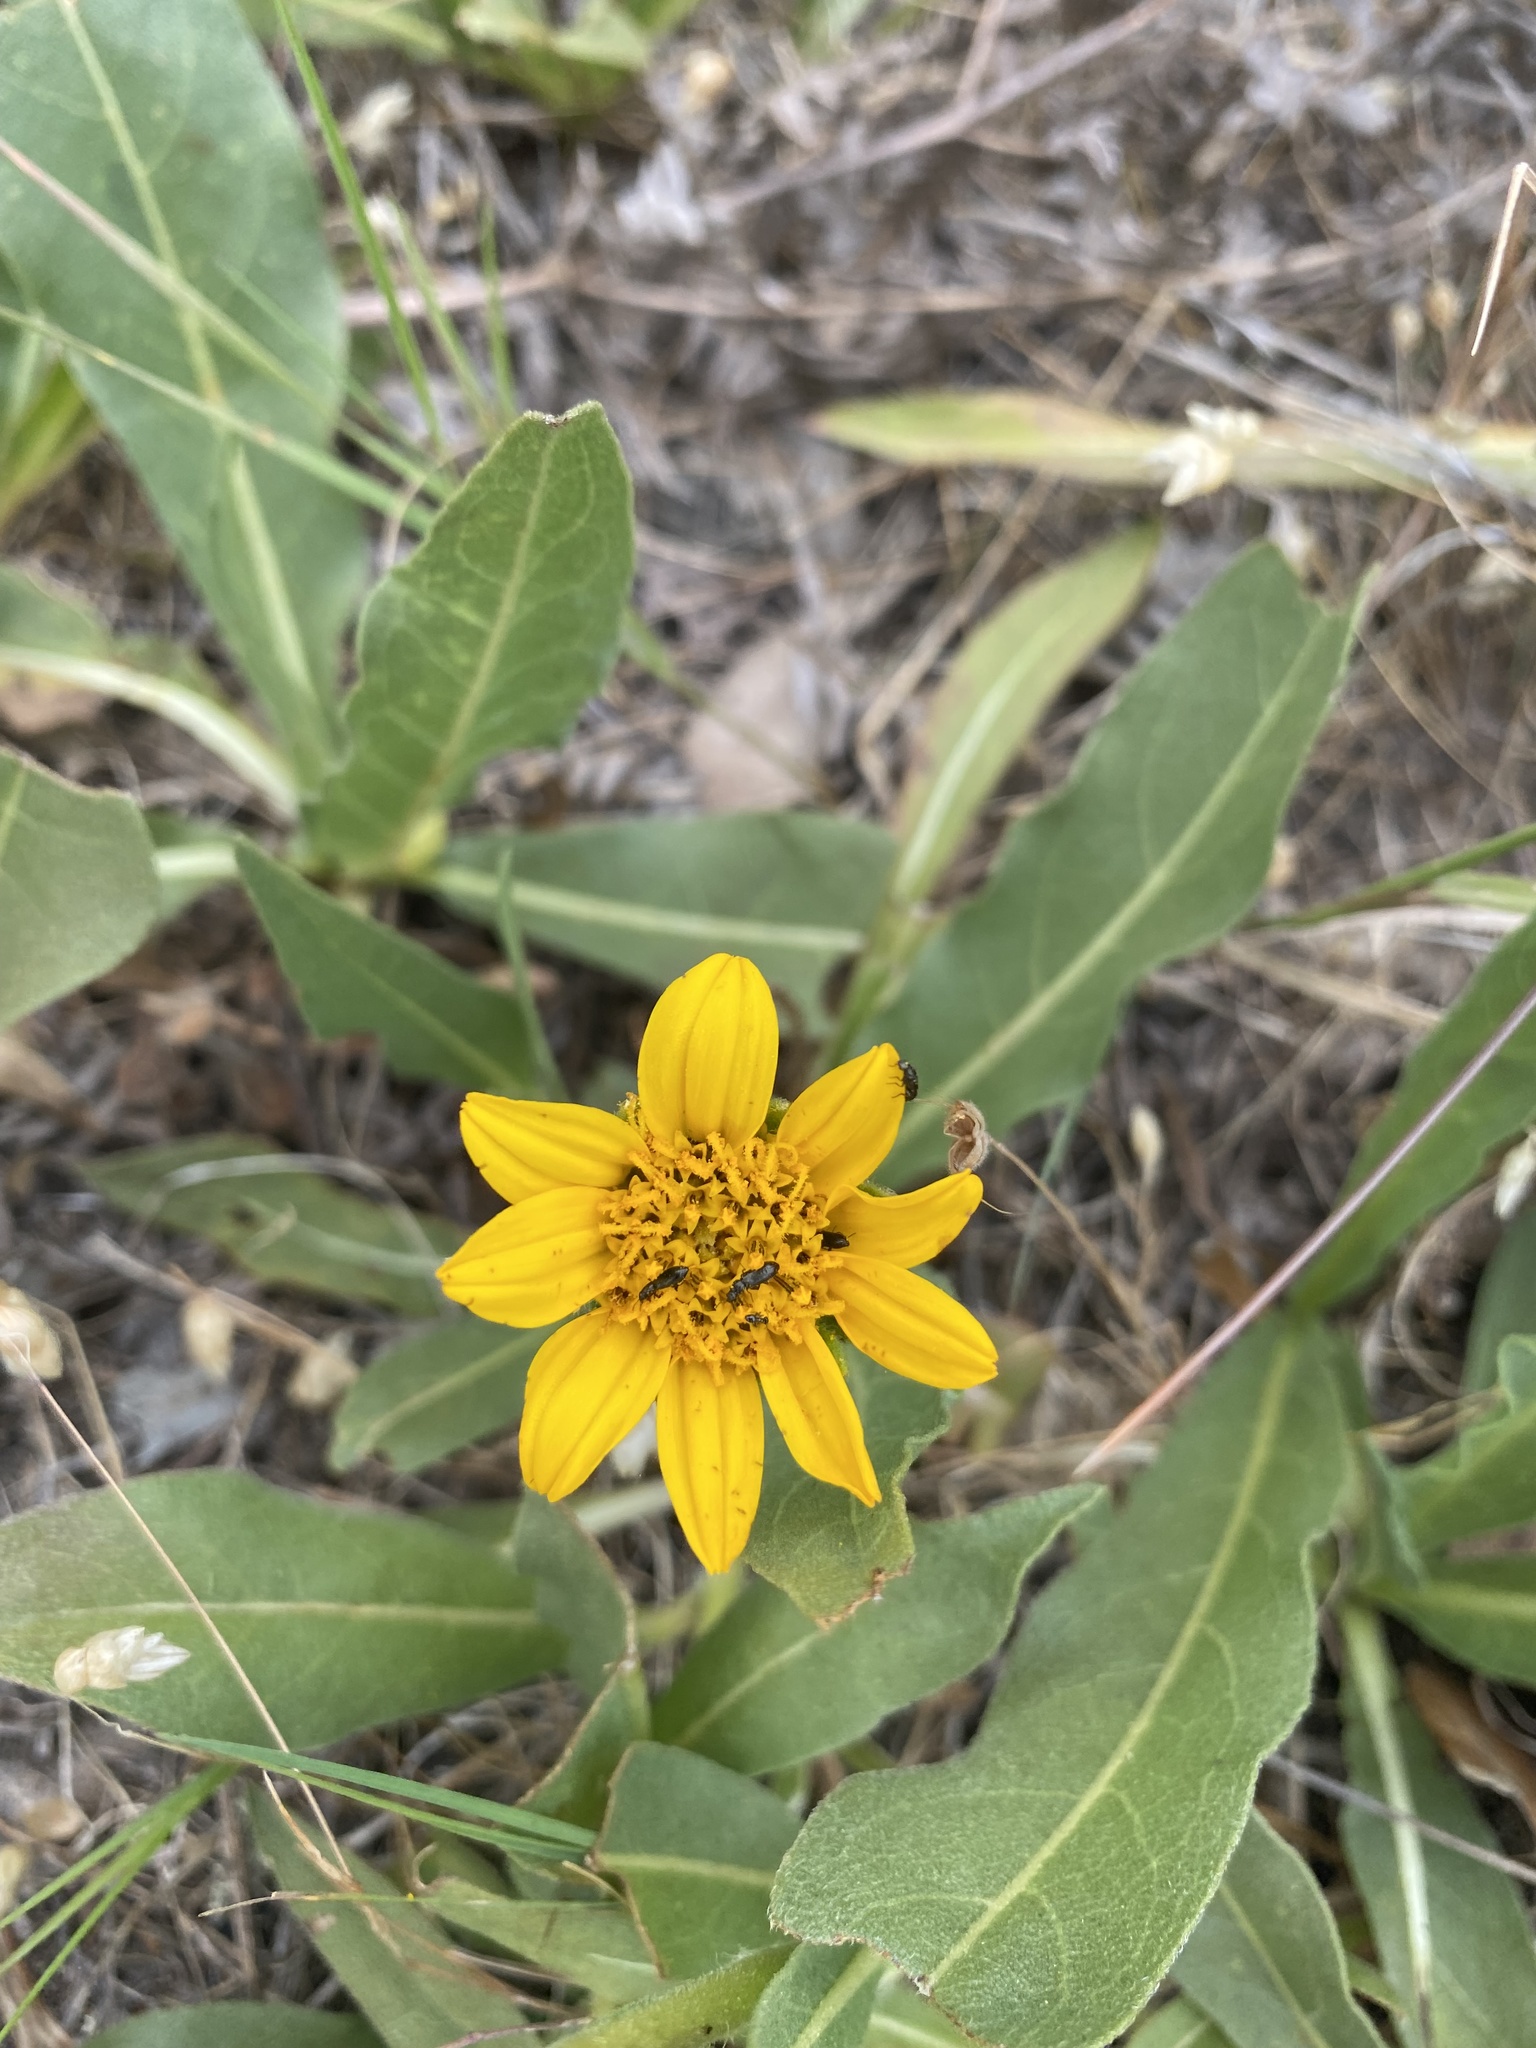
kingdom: Plantae
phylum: Tracheophyta
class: Magnoliopsida
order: Asterales
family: Asteraceae
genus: Wyethia
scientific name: Wyethia angustifolia
